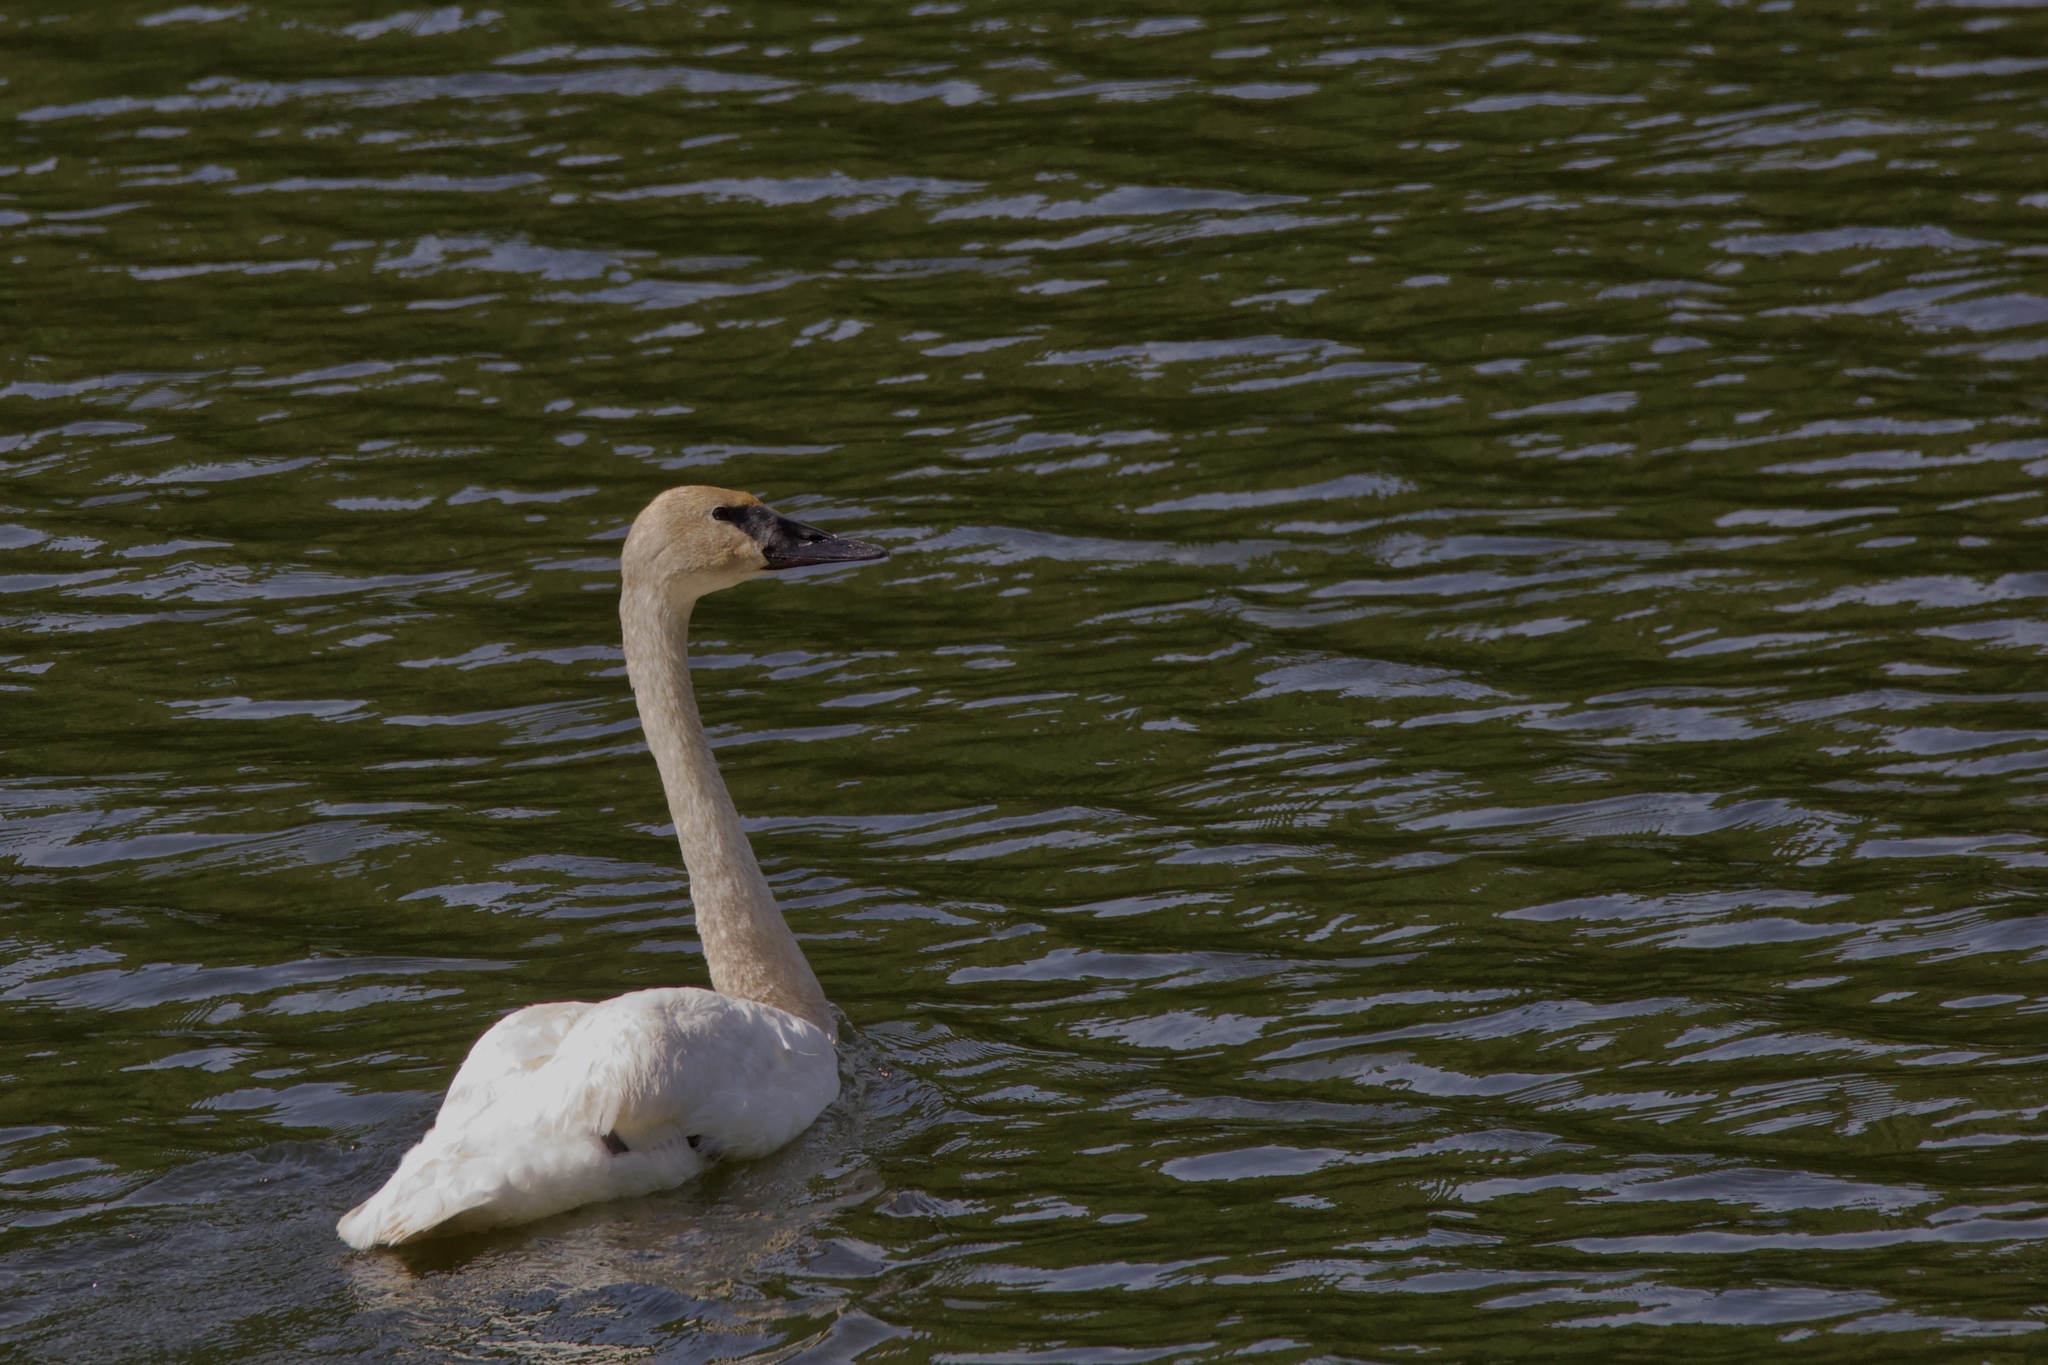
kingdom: Animalia
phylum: Chordata
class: Aves
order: Anseriformes
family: Anatidae
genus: Cygnus
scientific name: Cygnus buccinator
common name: Trumpeter swan
